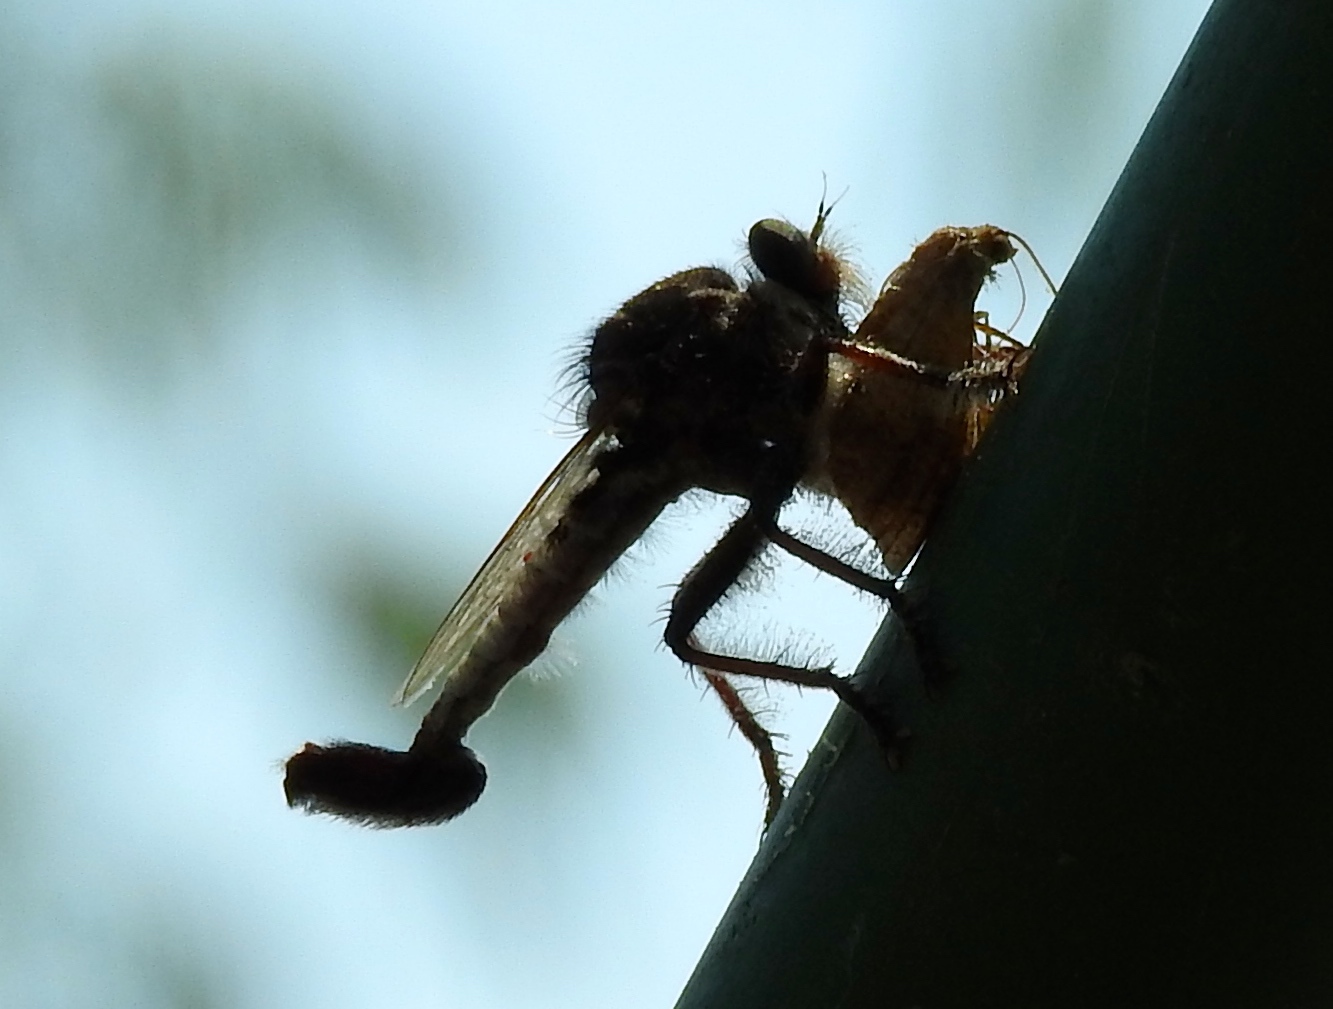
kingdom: Animalia
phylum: Arthropoda
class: Insecta
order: Diptera
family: Asilidae
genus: Efferia
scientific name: Efferia
